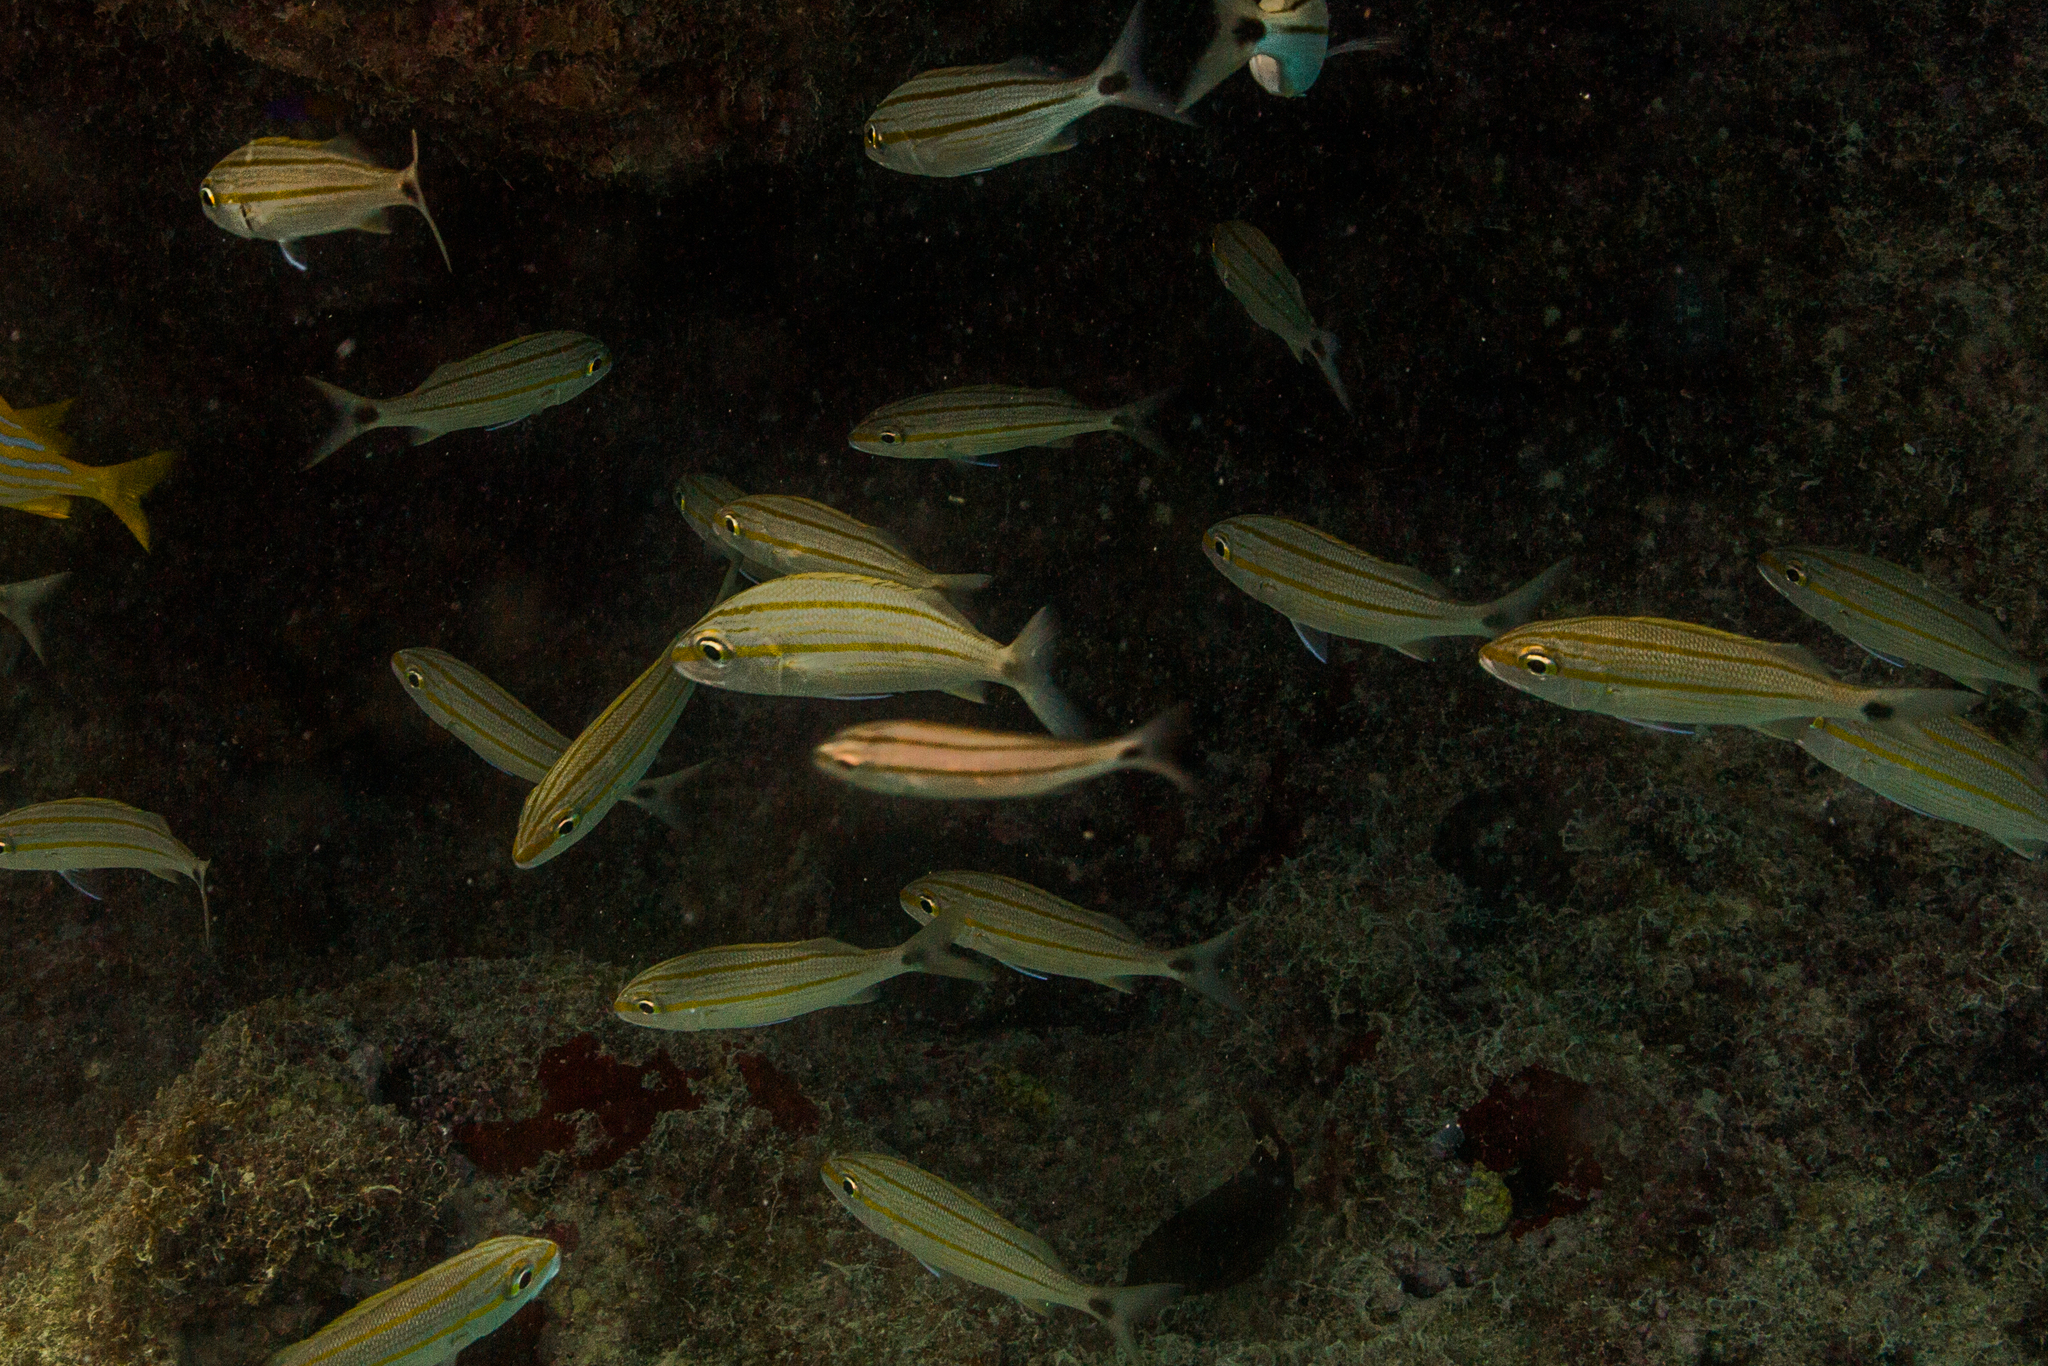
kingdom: Animalia
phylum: Chordata
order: Perciformes
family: Haemulidae
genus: Haemulon
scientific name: Haemulon aurolineatum
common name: Tomtate
